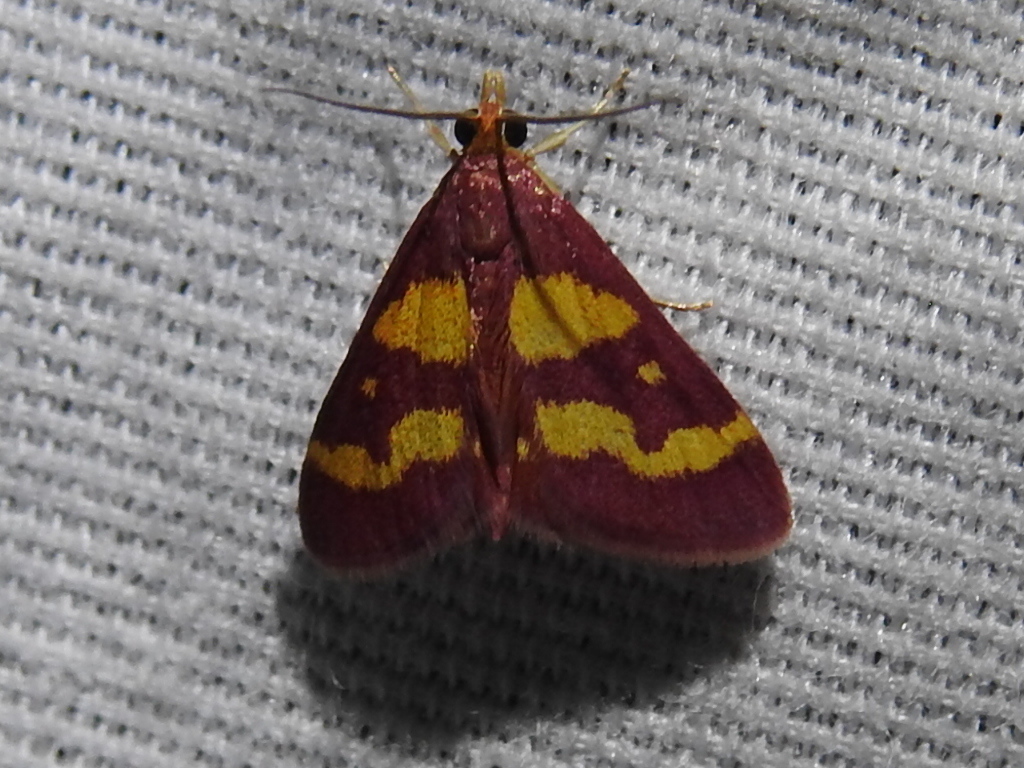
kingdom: Animalia
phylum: Arthropoda
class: Insecta
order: Lepidoptera
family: Crambidae
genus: Pyrausta
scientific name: Pyrausta tyralis
